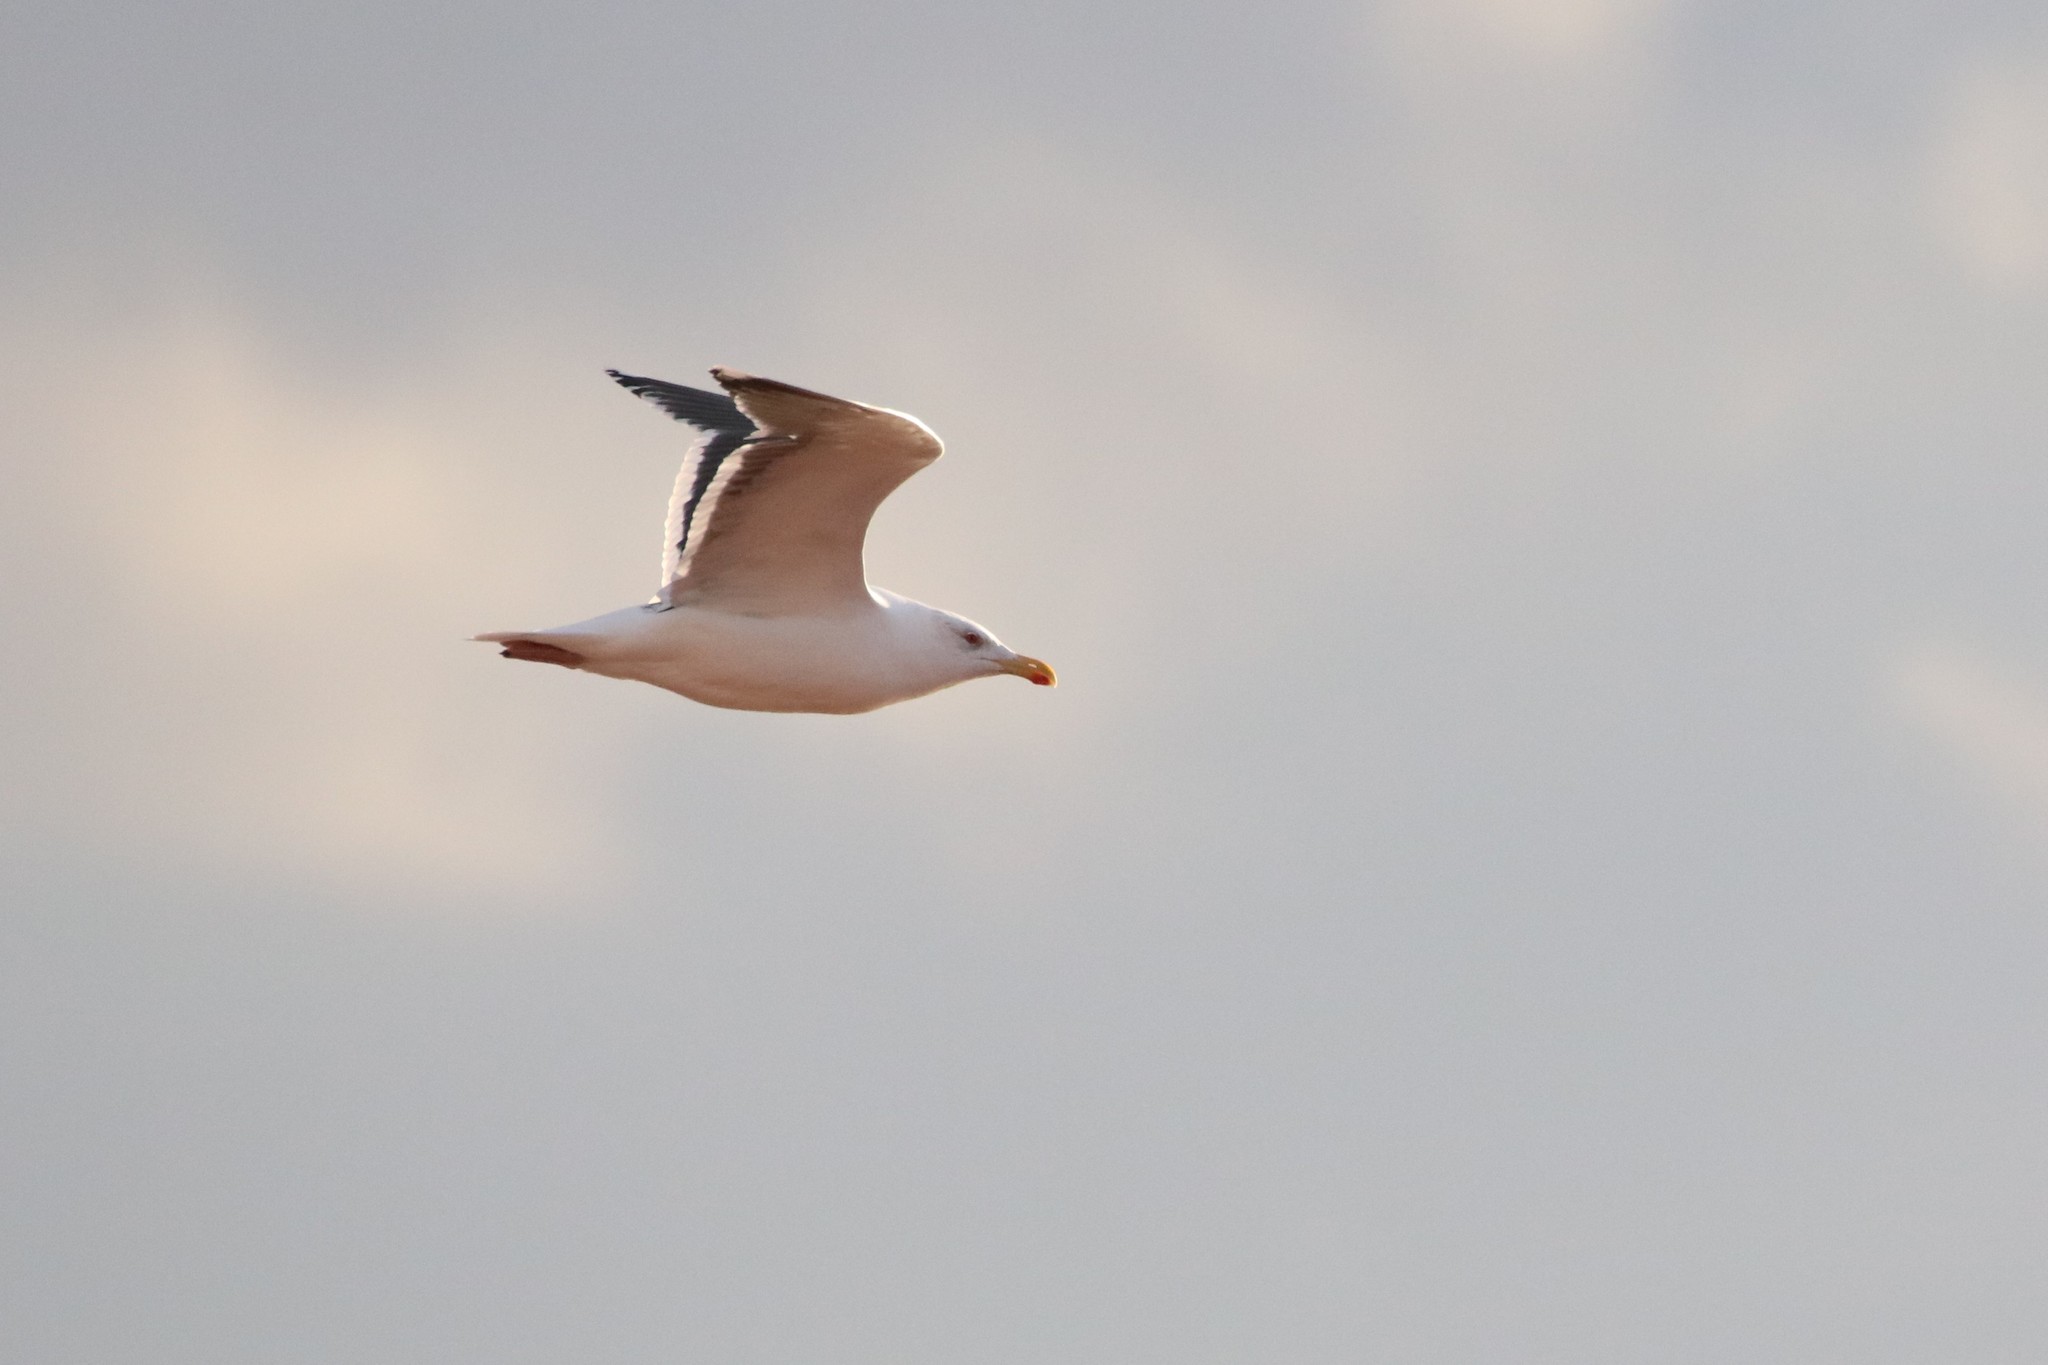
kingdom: Animalia
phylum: Chordata
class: Aves
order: Charadriiformes
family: Laridae
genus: Larus
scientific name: Larus marinus
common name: Great black-backed gull
